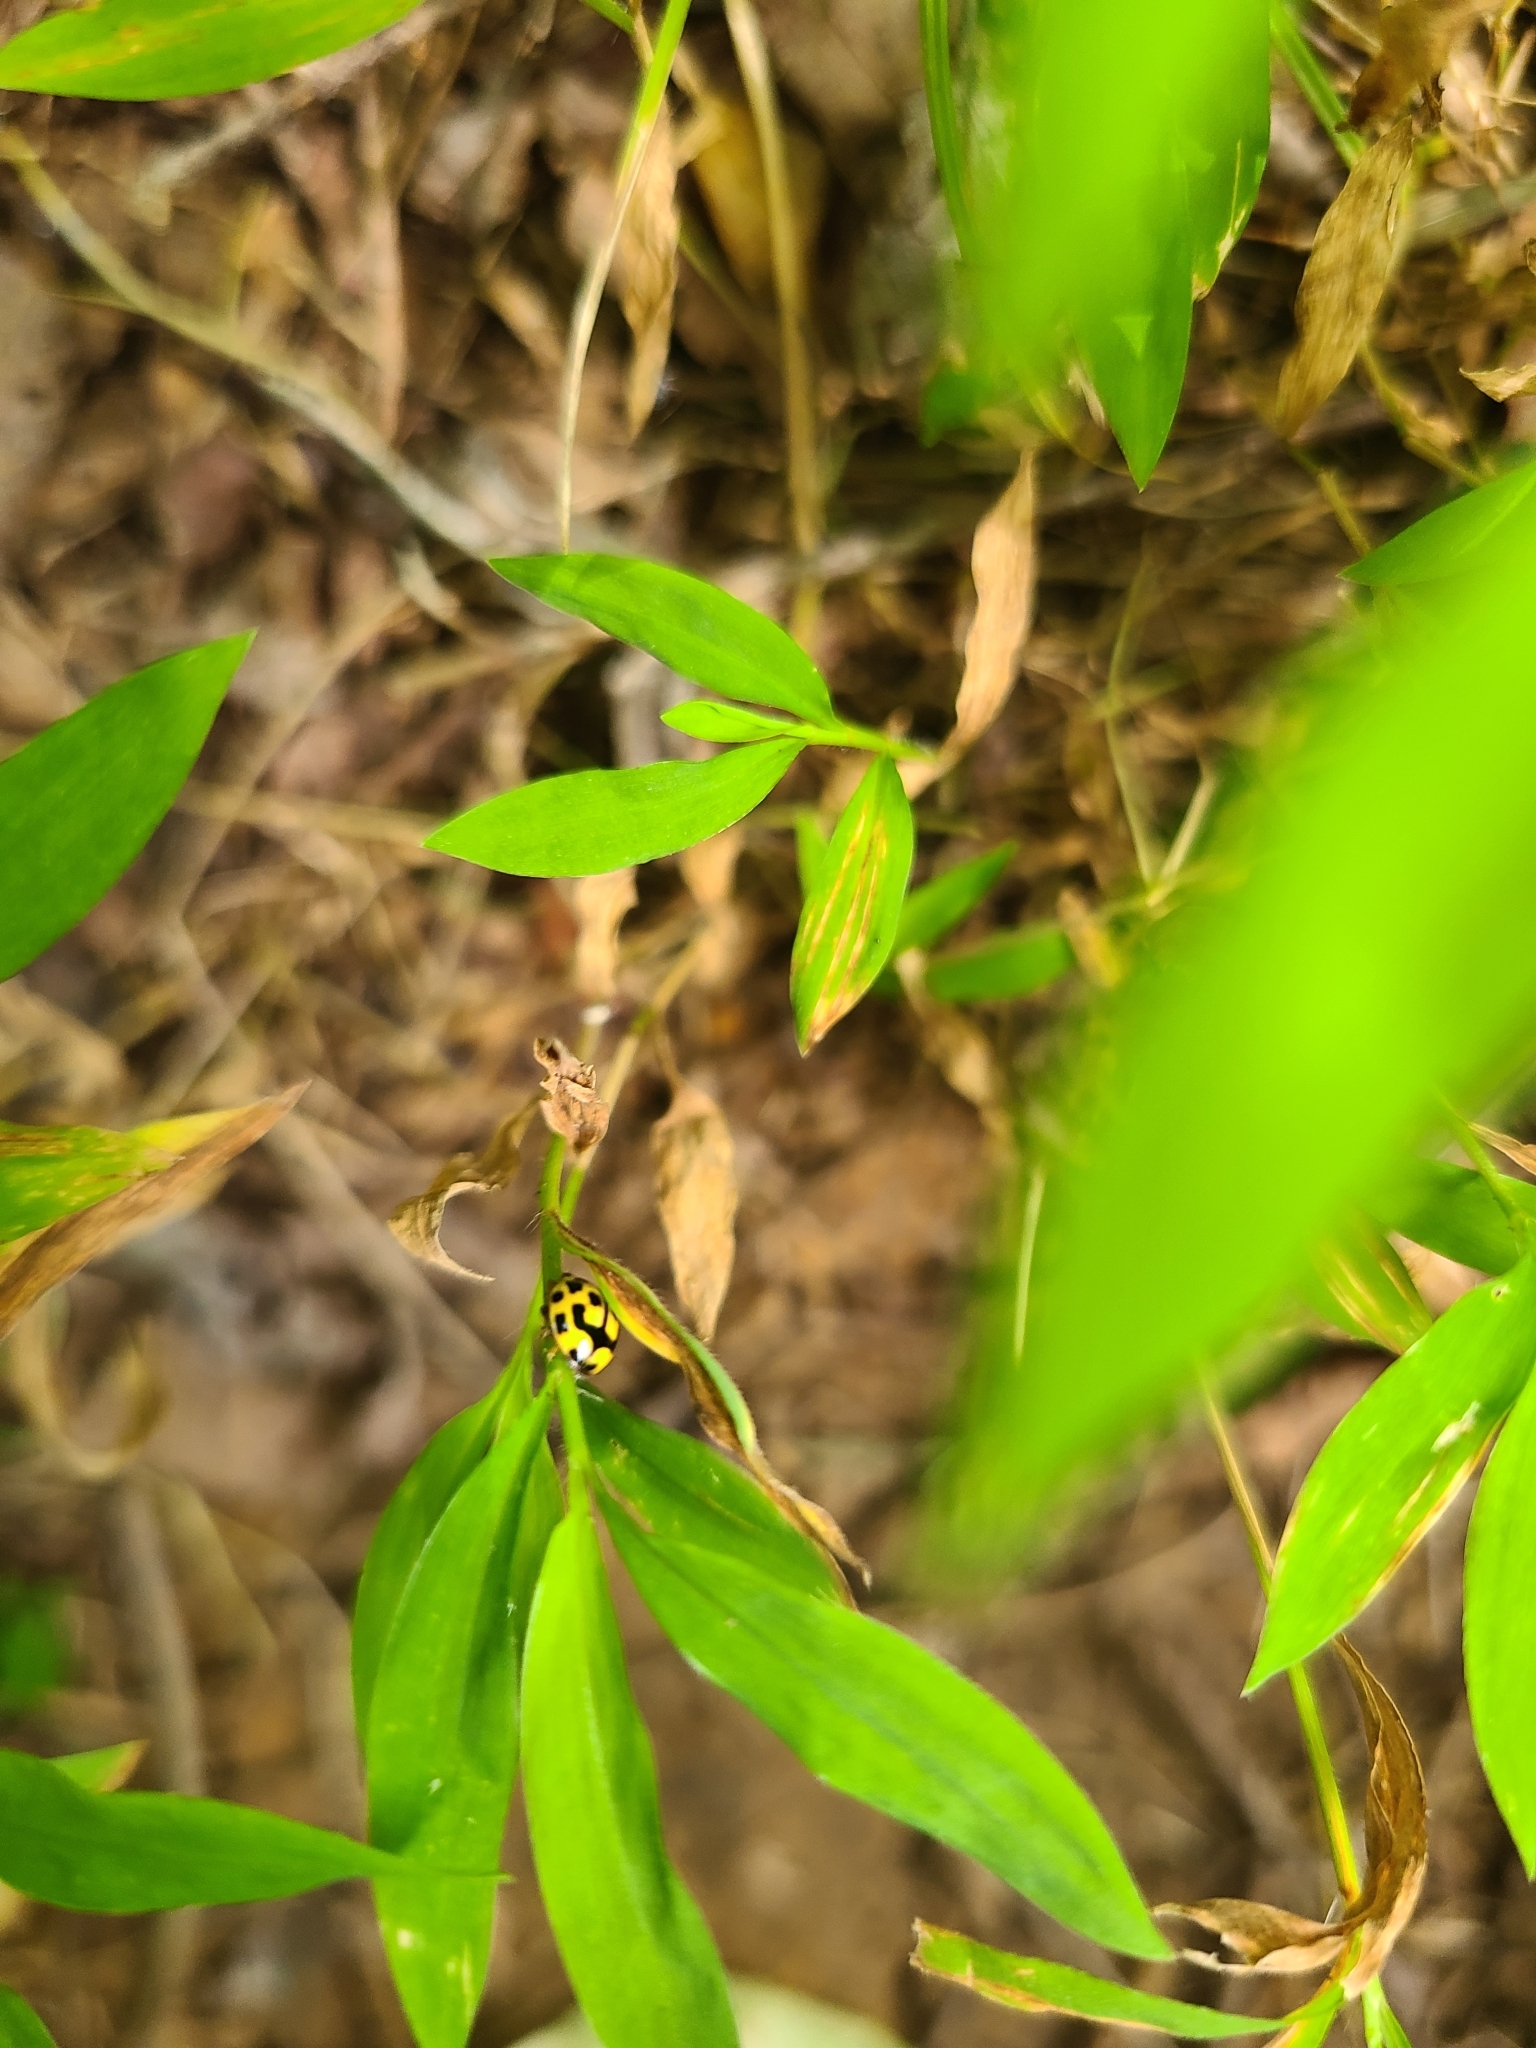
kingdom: Animalia
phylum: Arthropoda
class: Insecta
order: Coleoptera
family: Coccinellidae
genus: Propylaea
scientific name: Propylaea quatuordecimpunctata
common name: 14-spotted ladybird beetle
